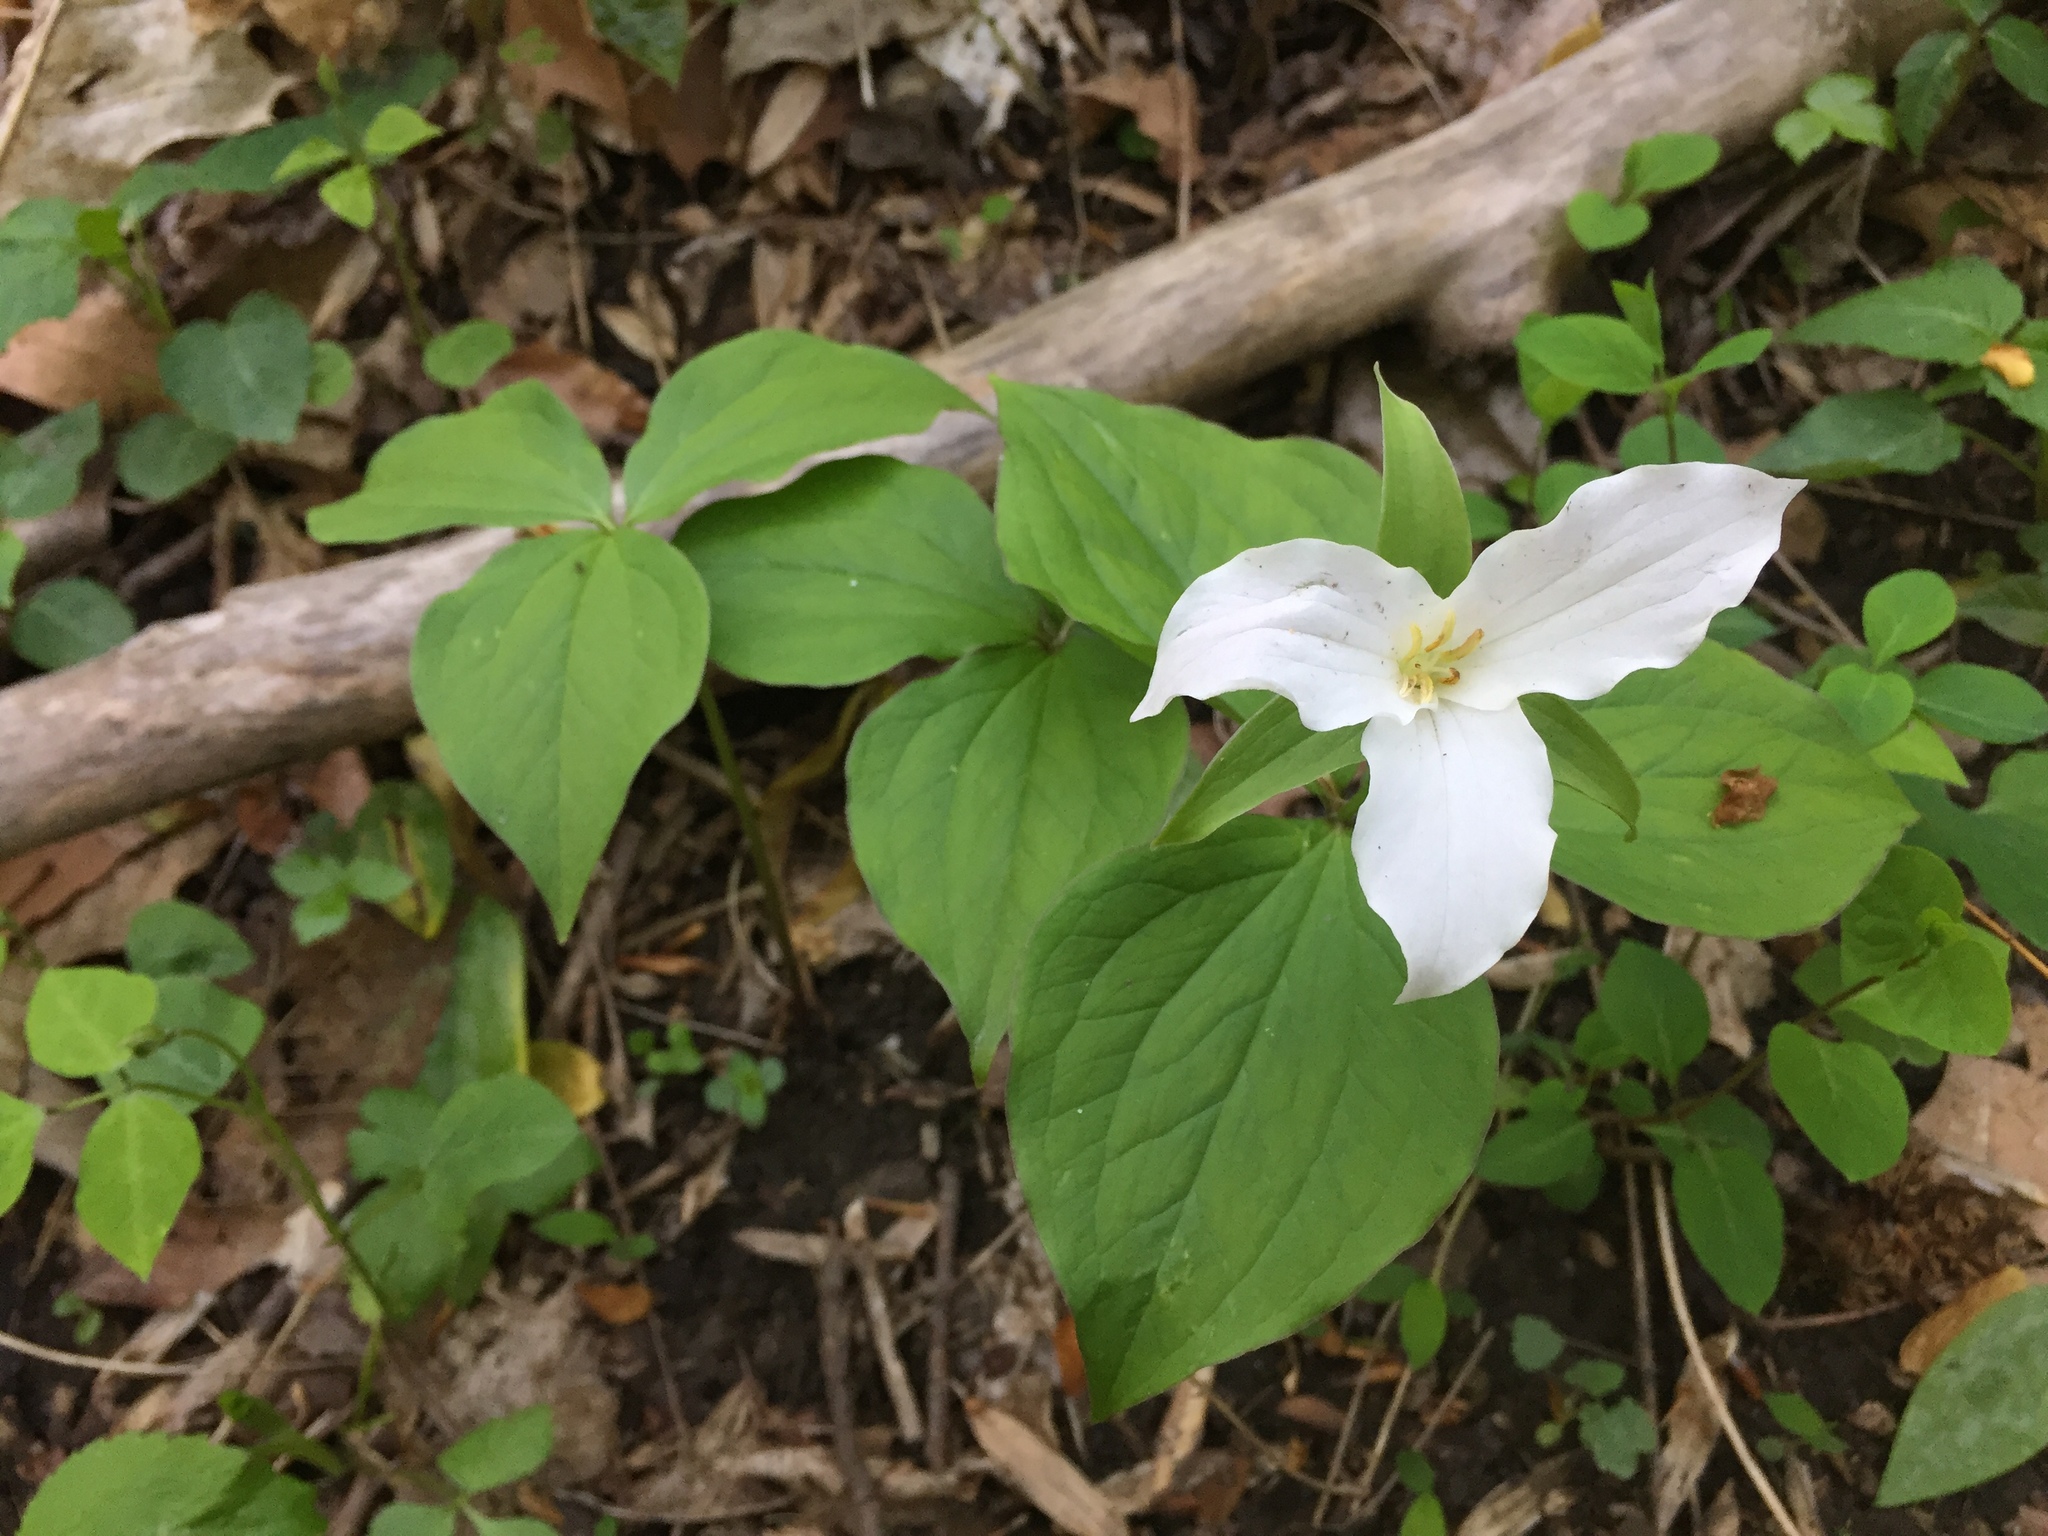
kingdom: Plantae
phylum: Tracheophyta
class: Liliopsida
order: Liliales
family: Melanthiaceae
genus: Trillium
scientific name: Trillium grandiflorum
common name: Great white trillium
